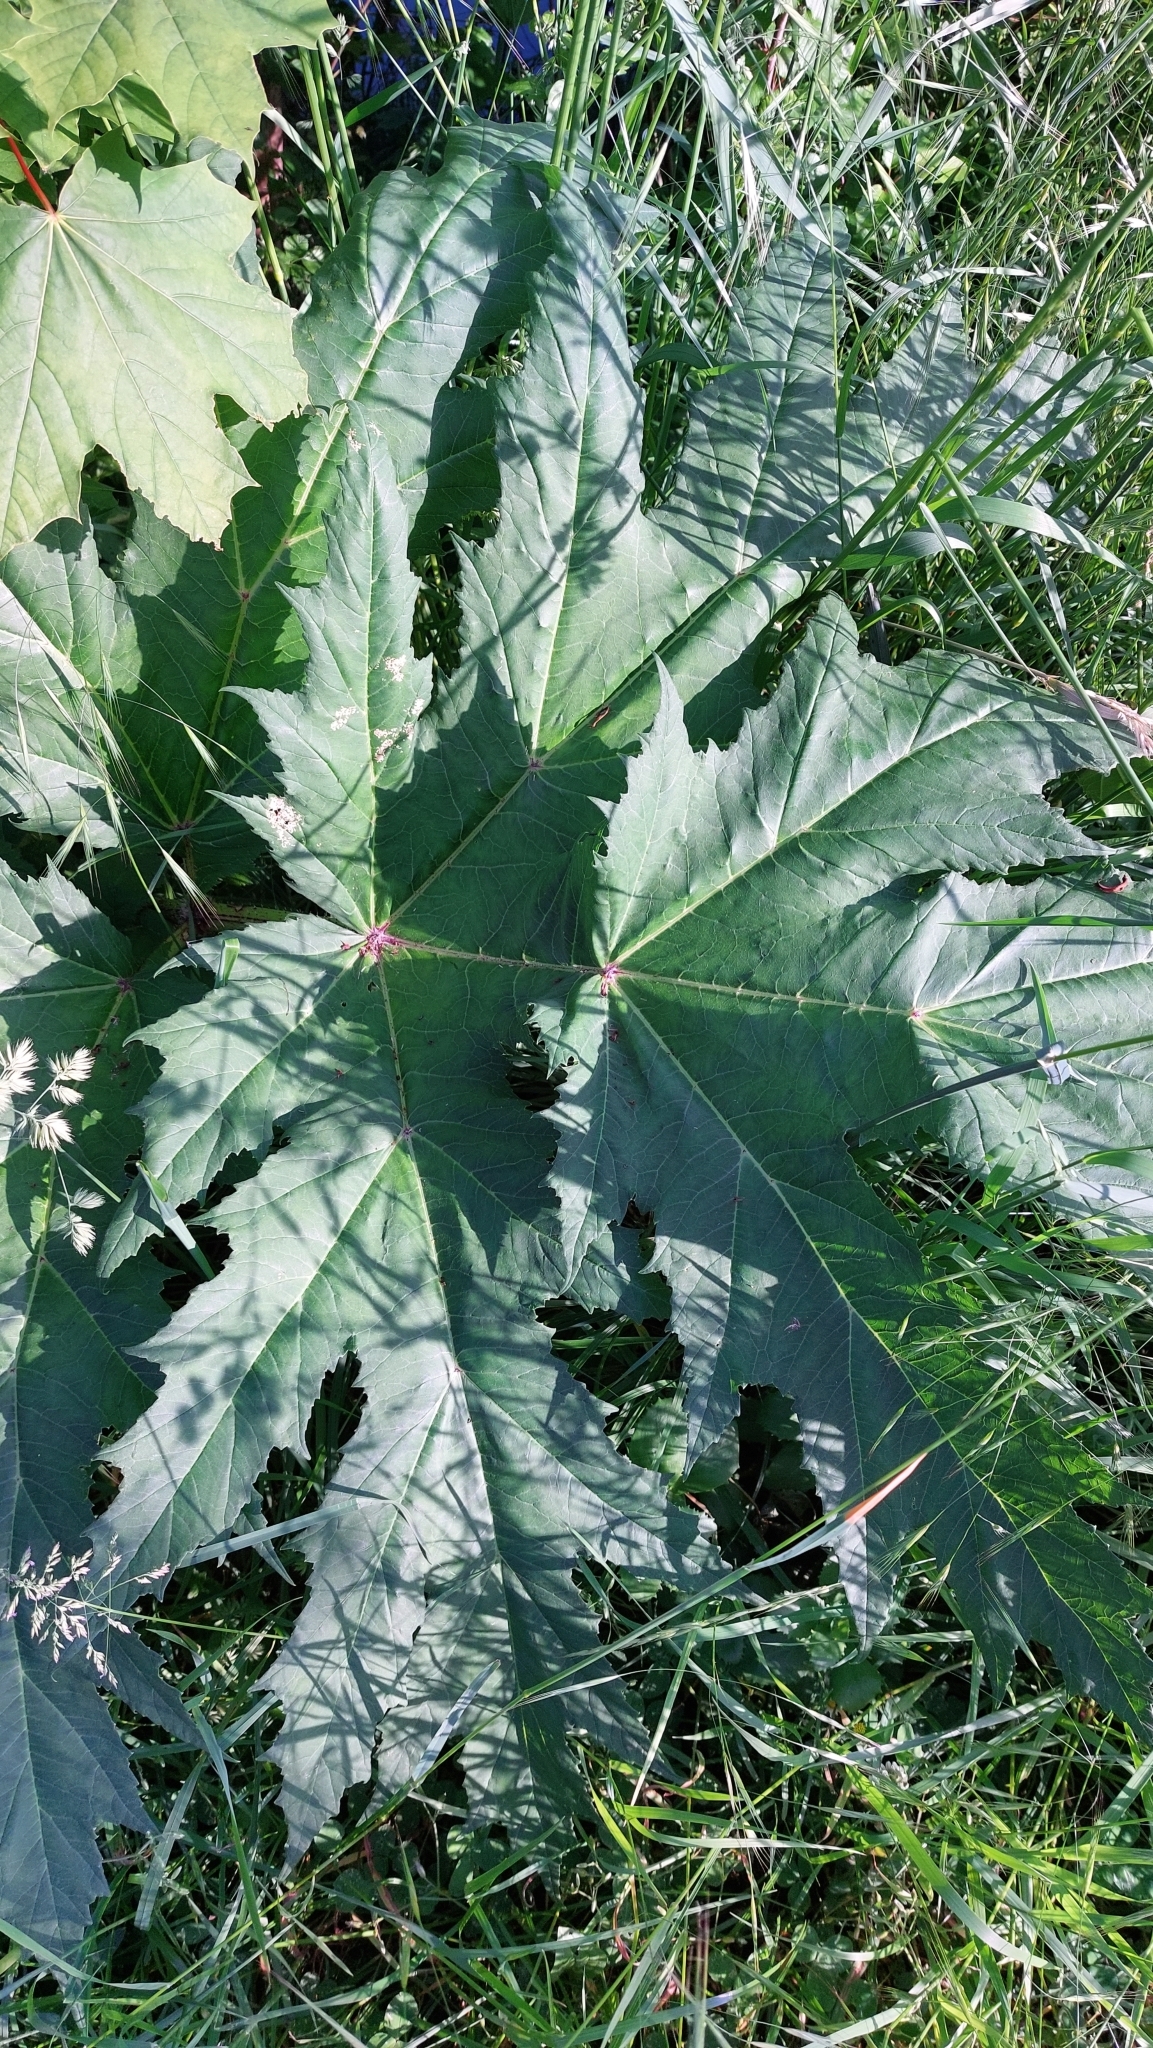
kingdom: Plantae
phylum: Tracheophyta
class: Magnoliopsida
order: Apiales
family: Apiaceae
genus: Heracleum
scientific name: Heracleum mantegazzianum
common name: Giant hogweed
